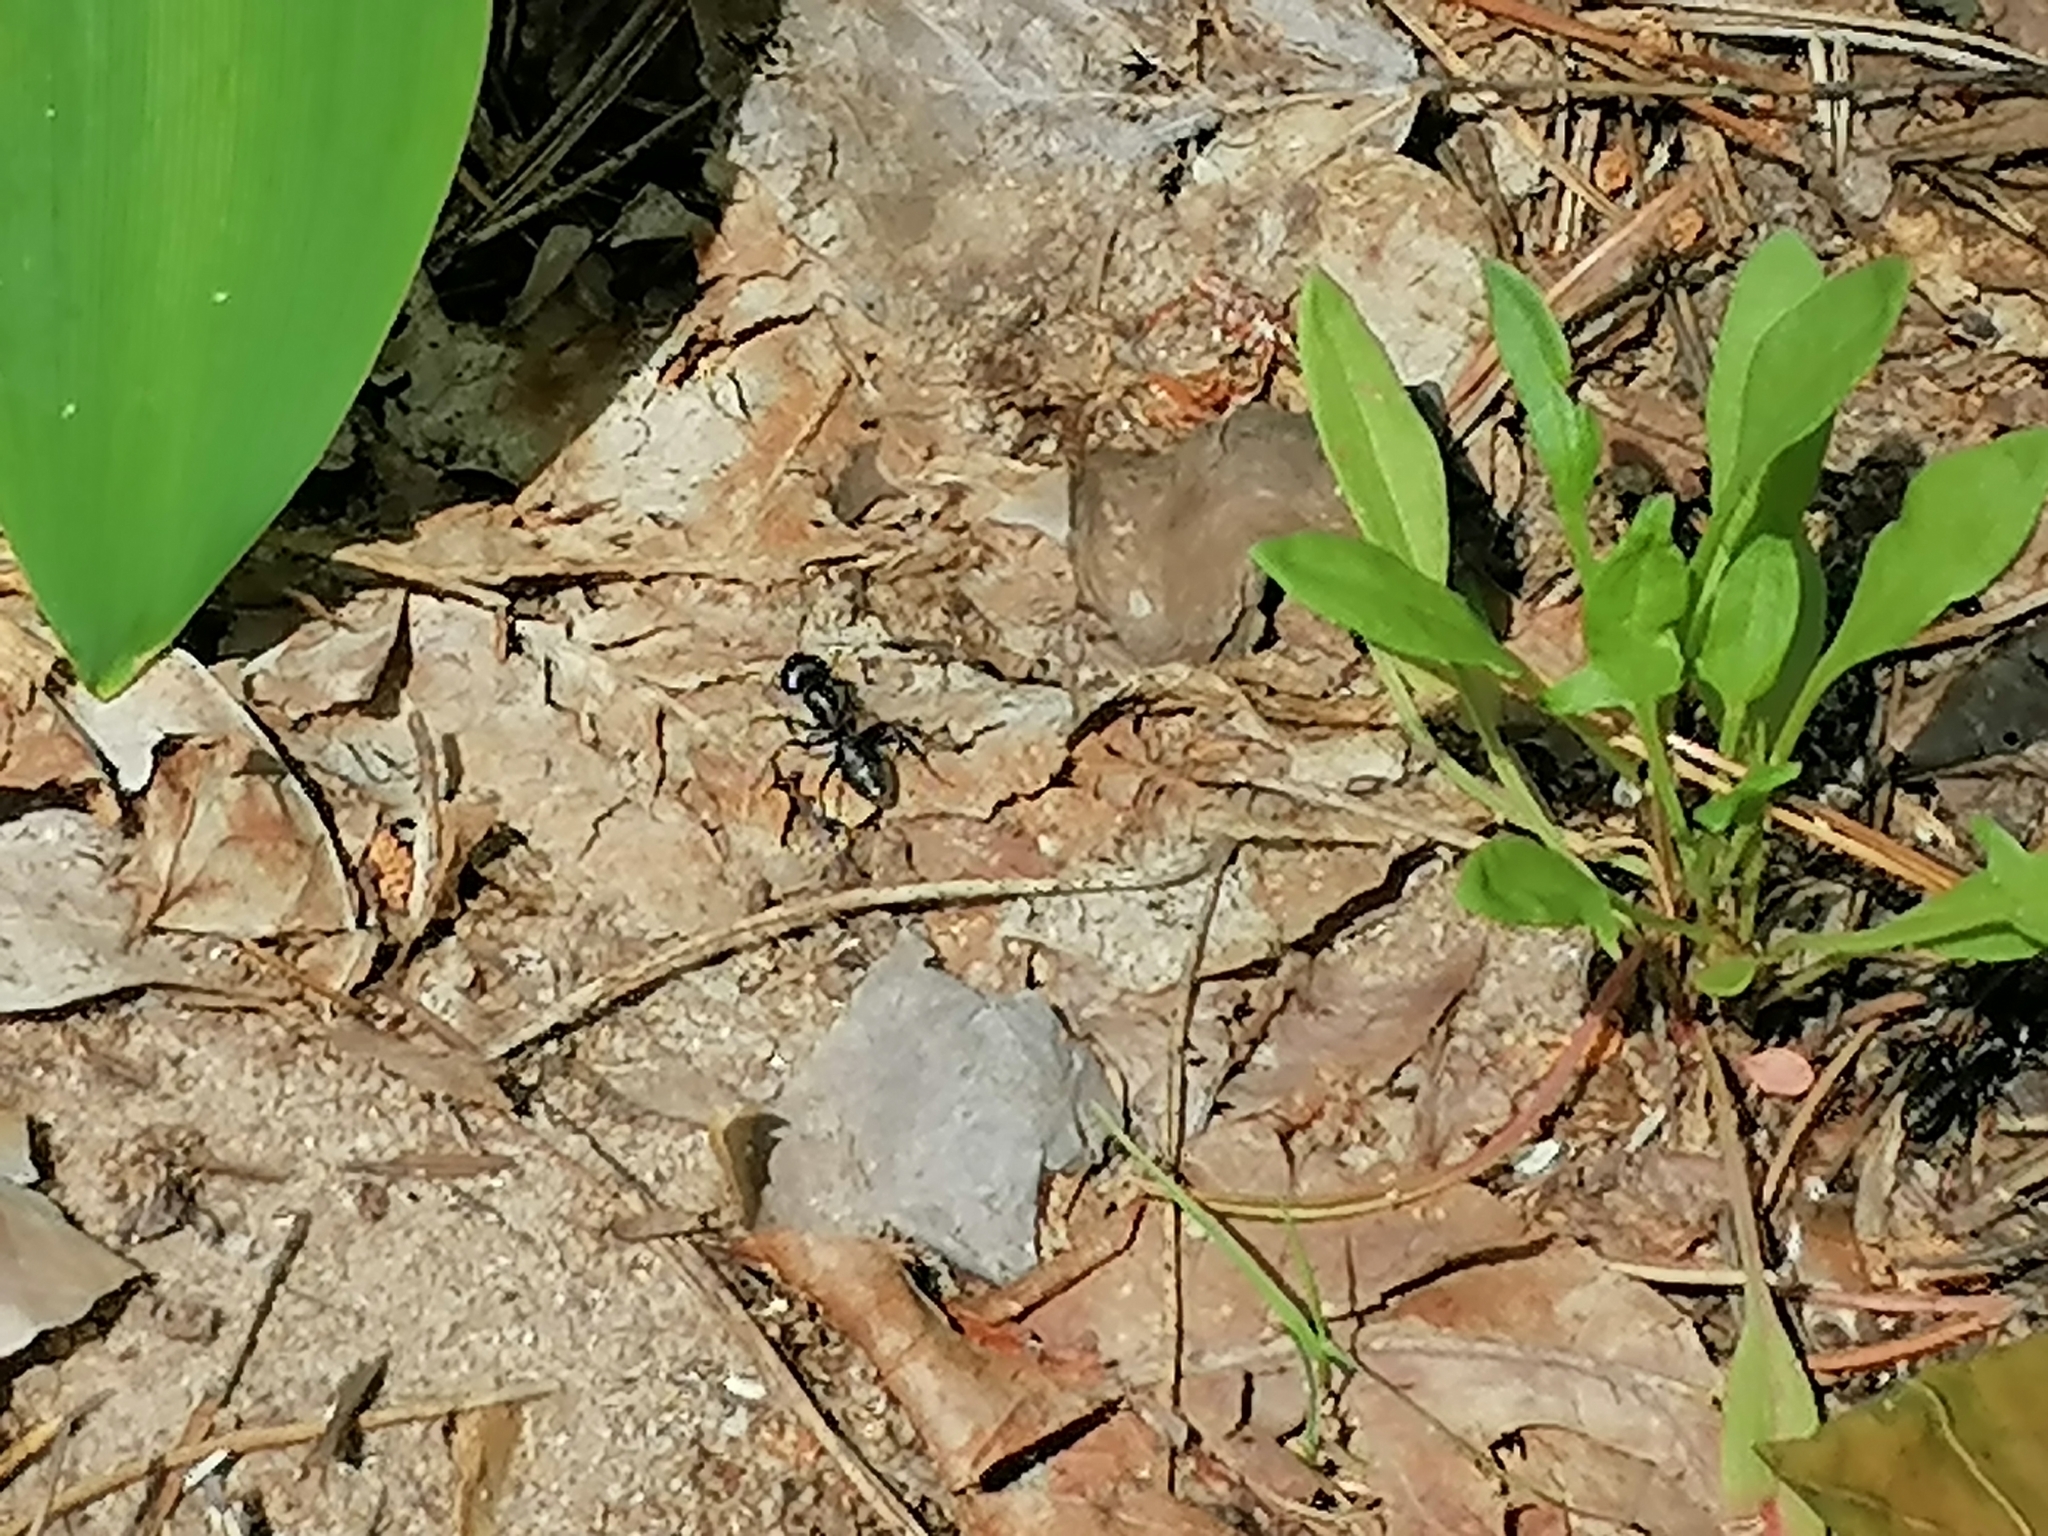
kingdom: Animalia
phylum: Arthropoda
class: Insecta
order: Hymenoptera
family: Formicidae
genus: Camponotus
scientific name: Camponotus vagus
